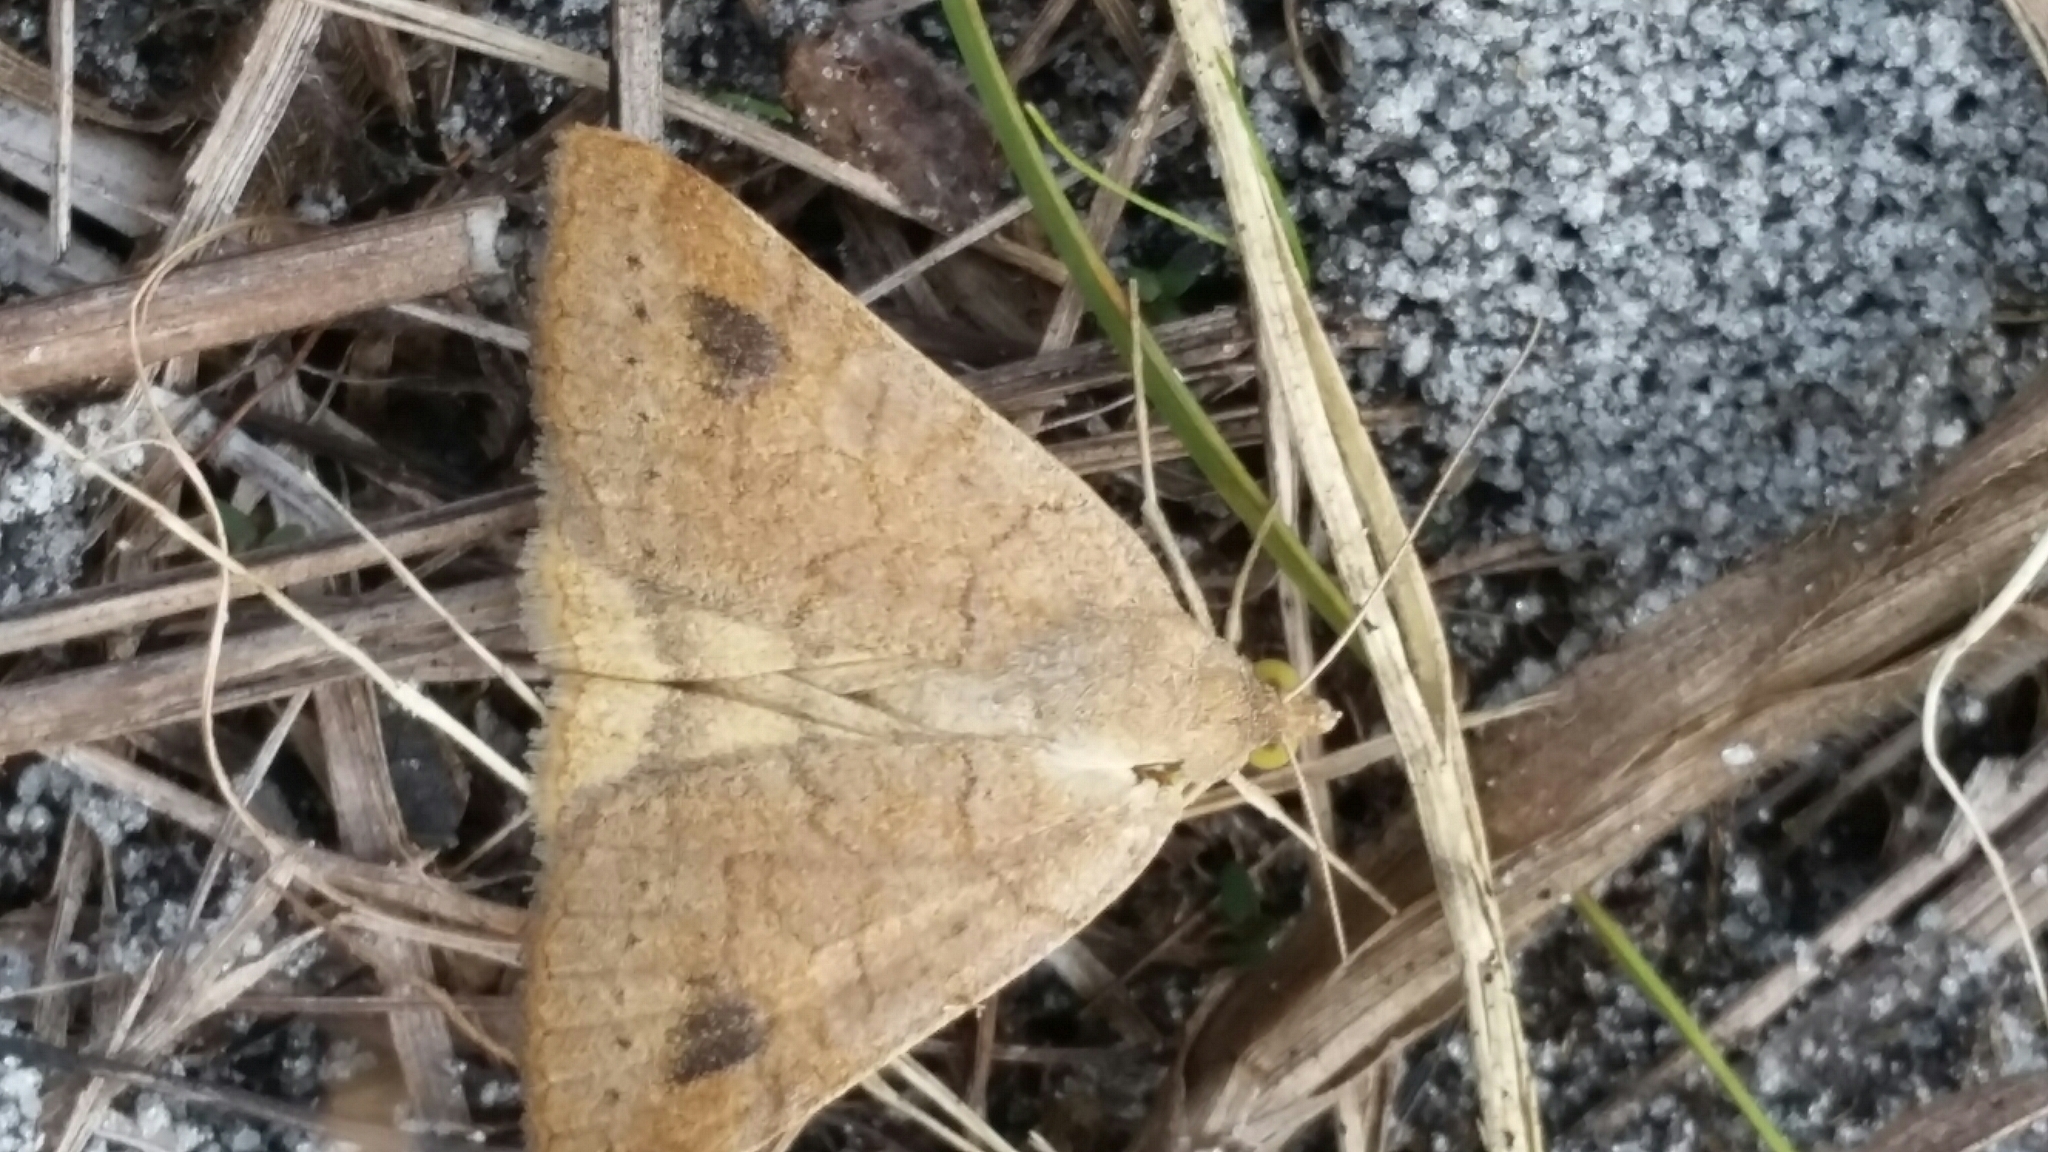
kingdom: Animalia
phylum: Arthropoda
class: Insecta
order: Lepidoptera
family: Erebidae
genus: Caenurgia
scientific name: Caenurgia chloropha
